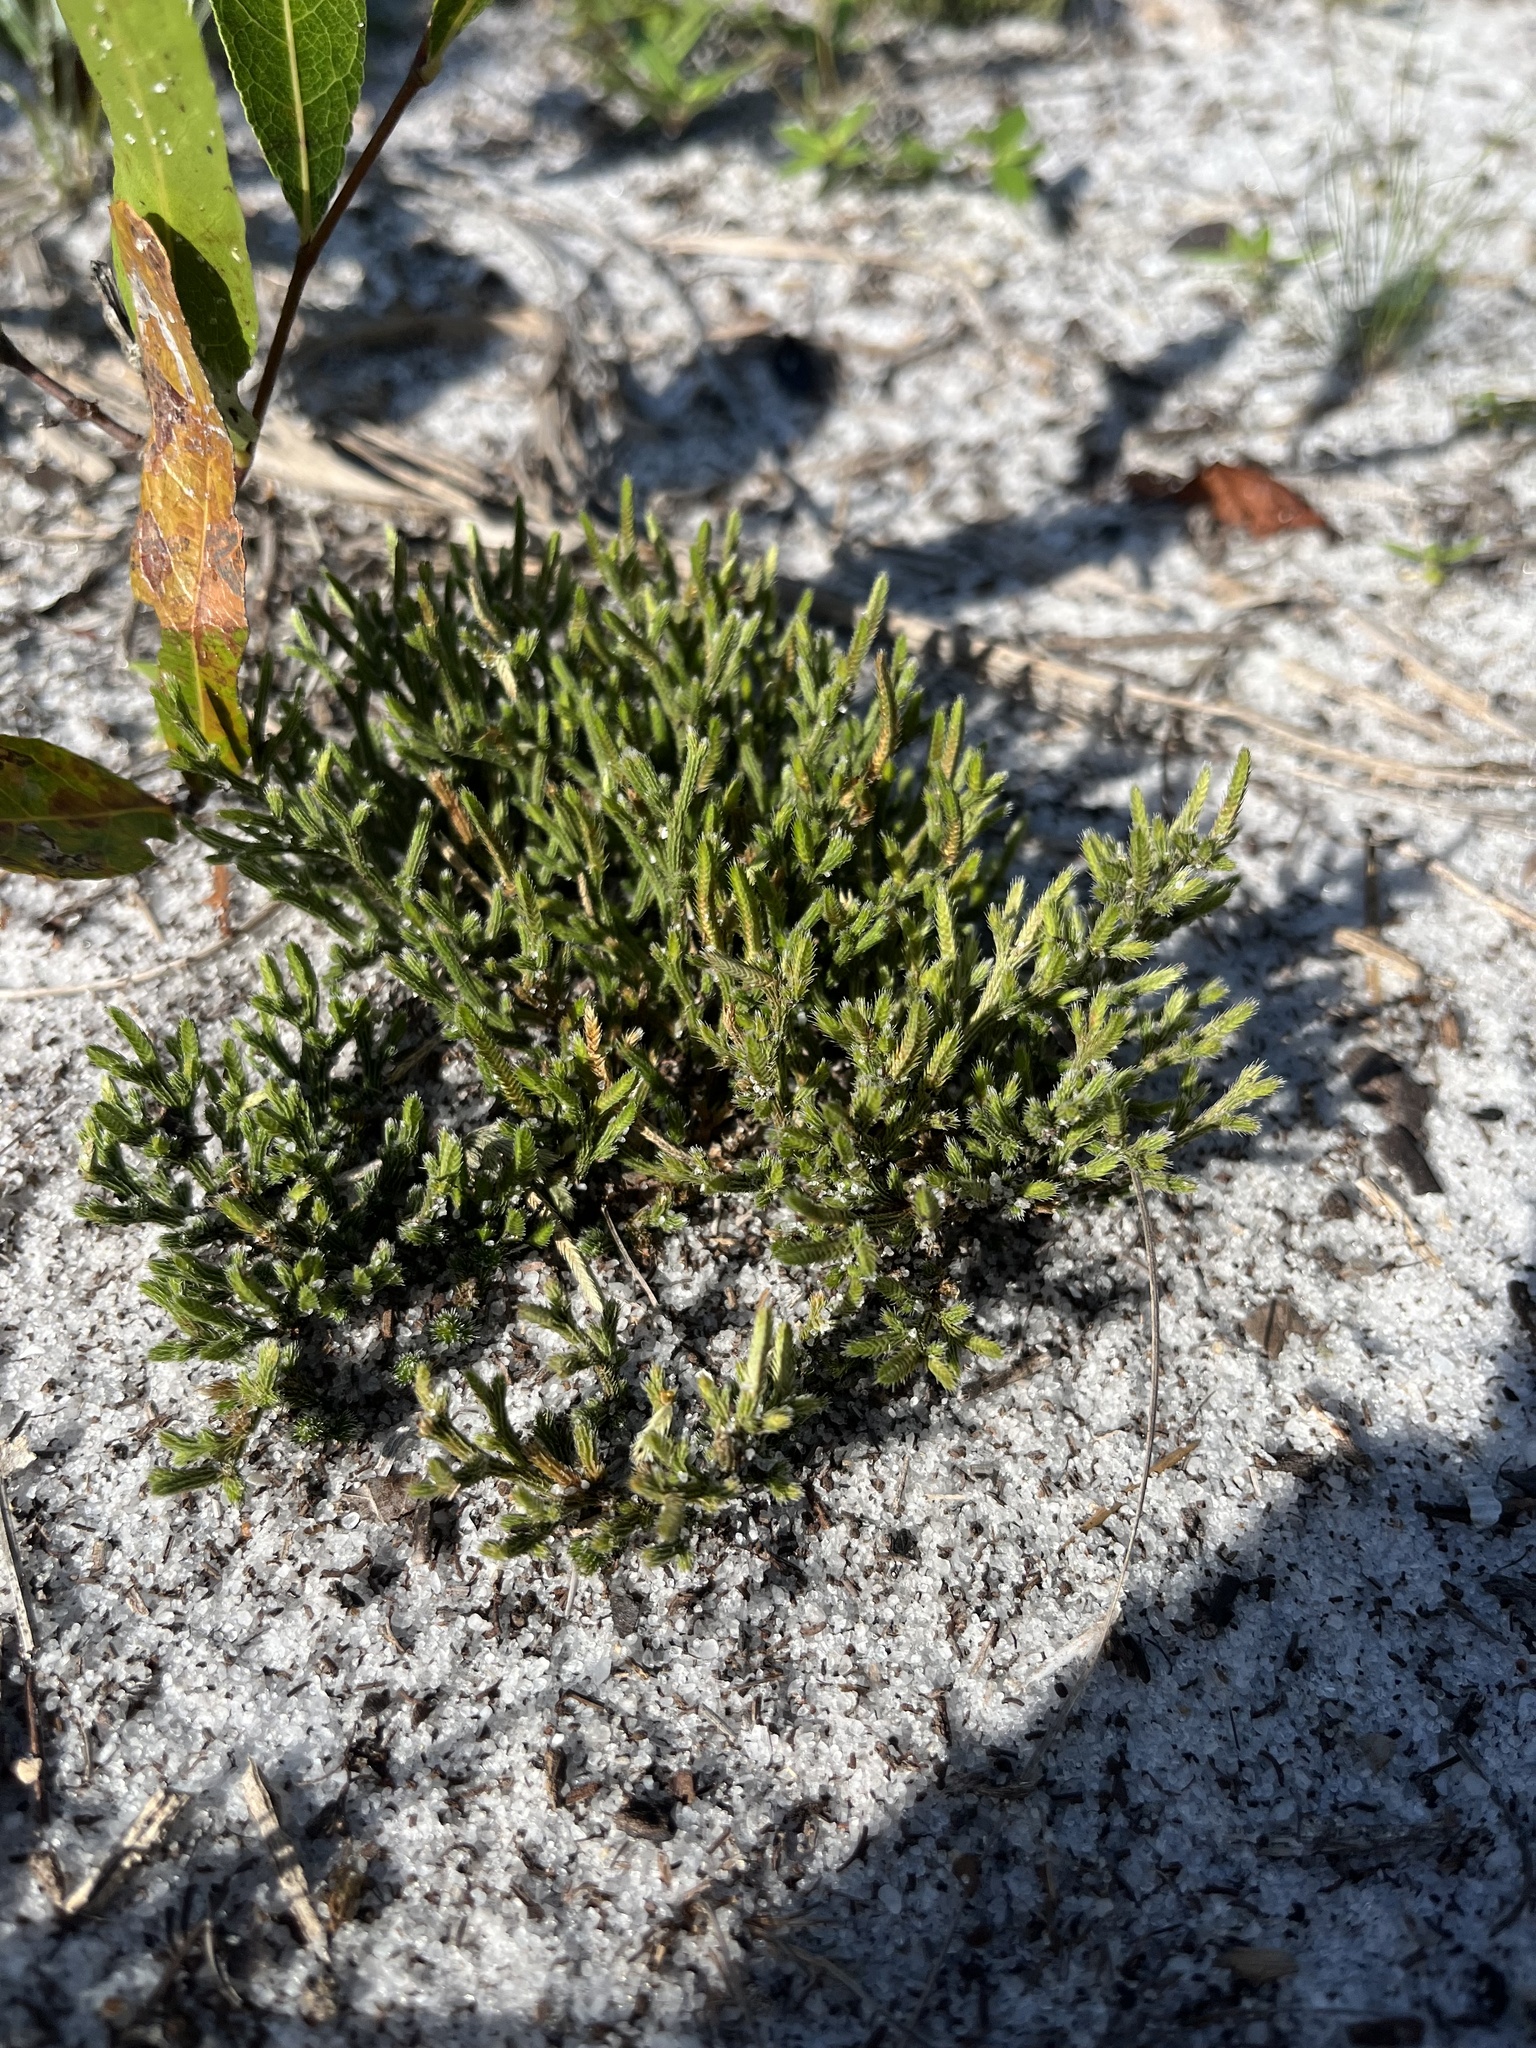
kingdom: Plantae
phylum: Tracheophyta
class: Lycopodiopsida
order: Selaginellales
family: Selaginellaceae
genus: Selaginella
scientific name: Selaginella arenicola
